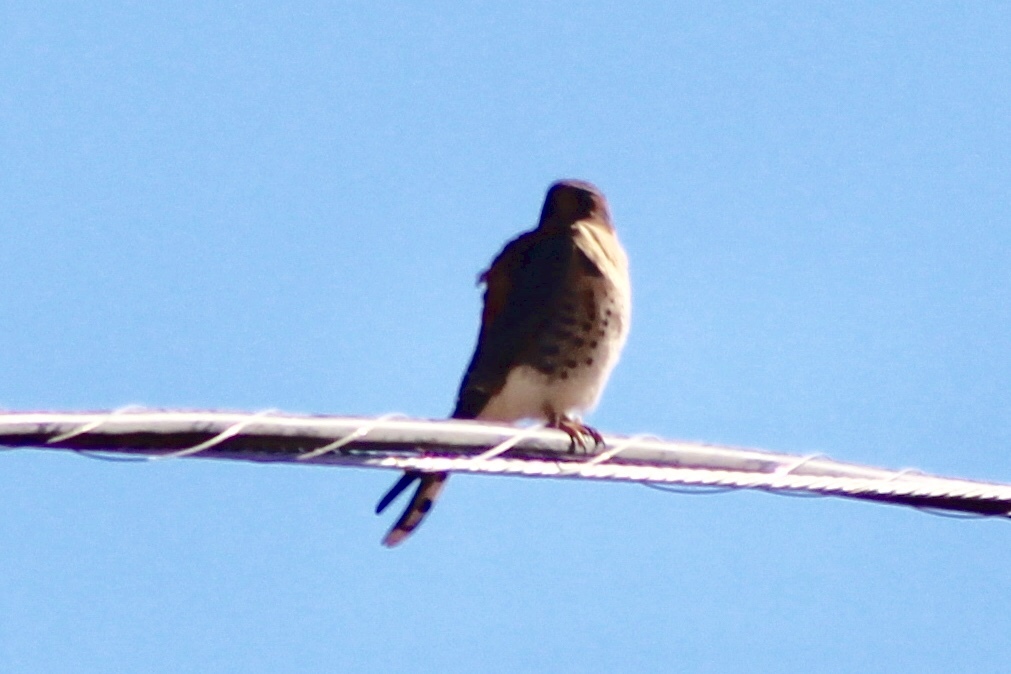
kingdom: Animalia
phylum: Chordata
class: Aves
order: Falconiformes
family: Falconidae
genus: Falco
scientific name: Falco sparverius
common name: American kestrel
